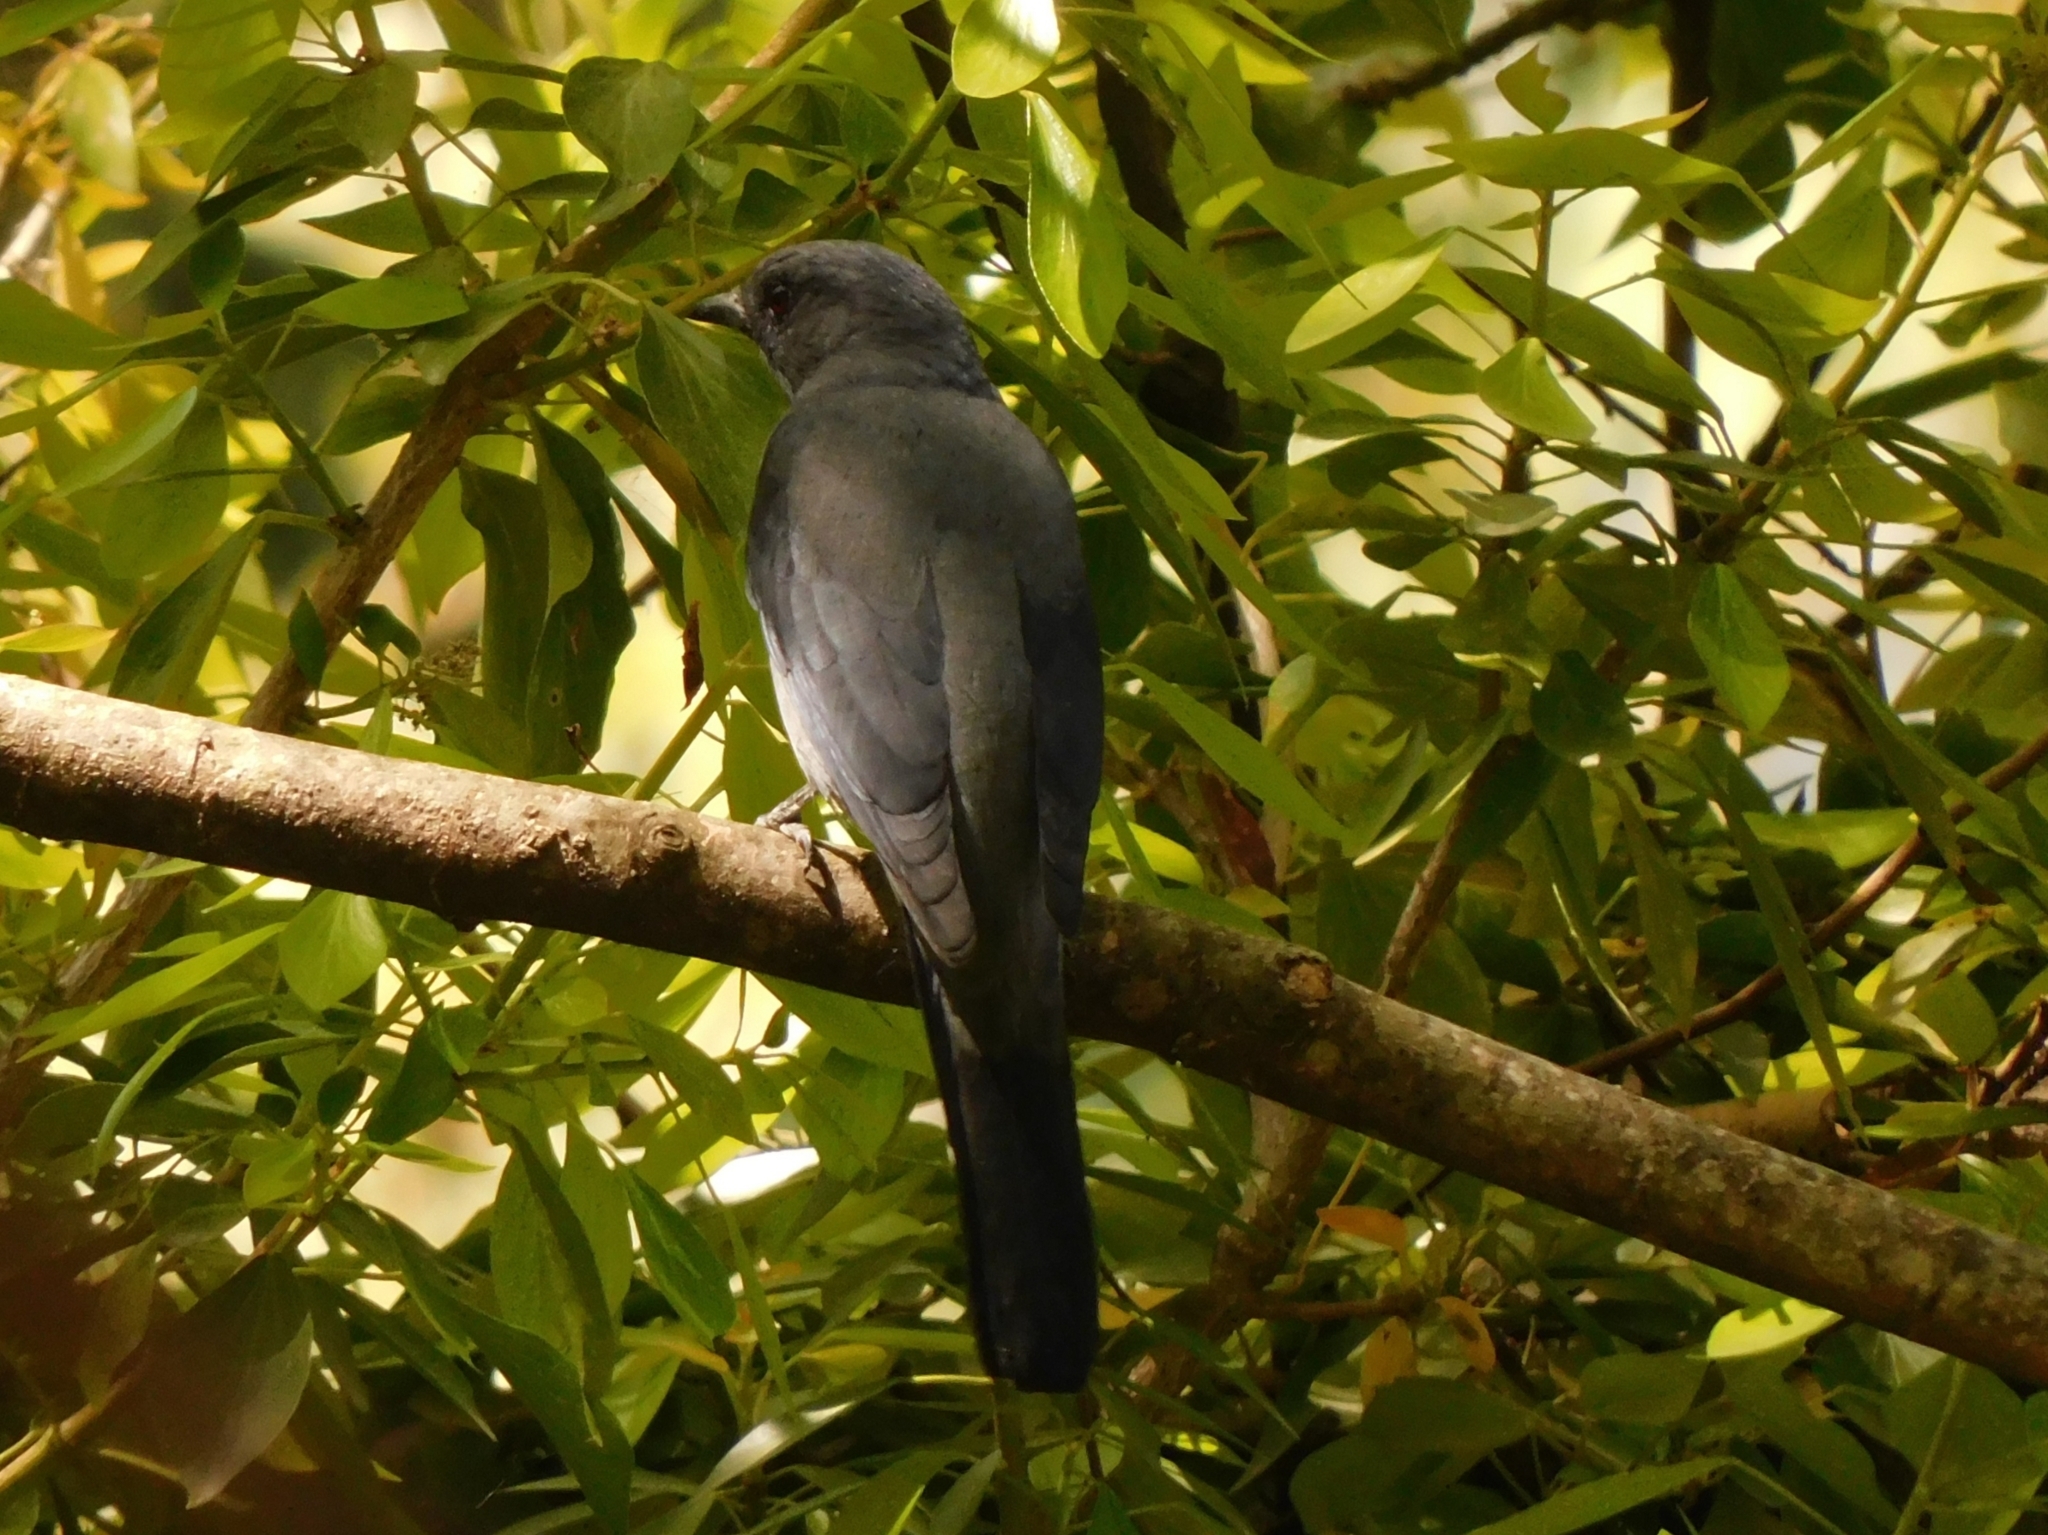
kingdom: Animalia
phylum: Chordata
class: Aves
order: Passeriformes
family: Campephagidae
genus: Coracina
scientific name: Coracina melaschistos
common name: Black-winged cuckooshrike
